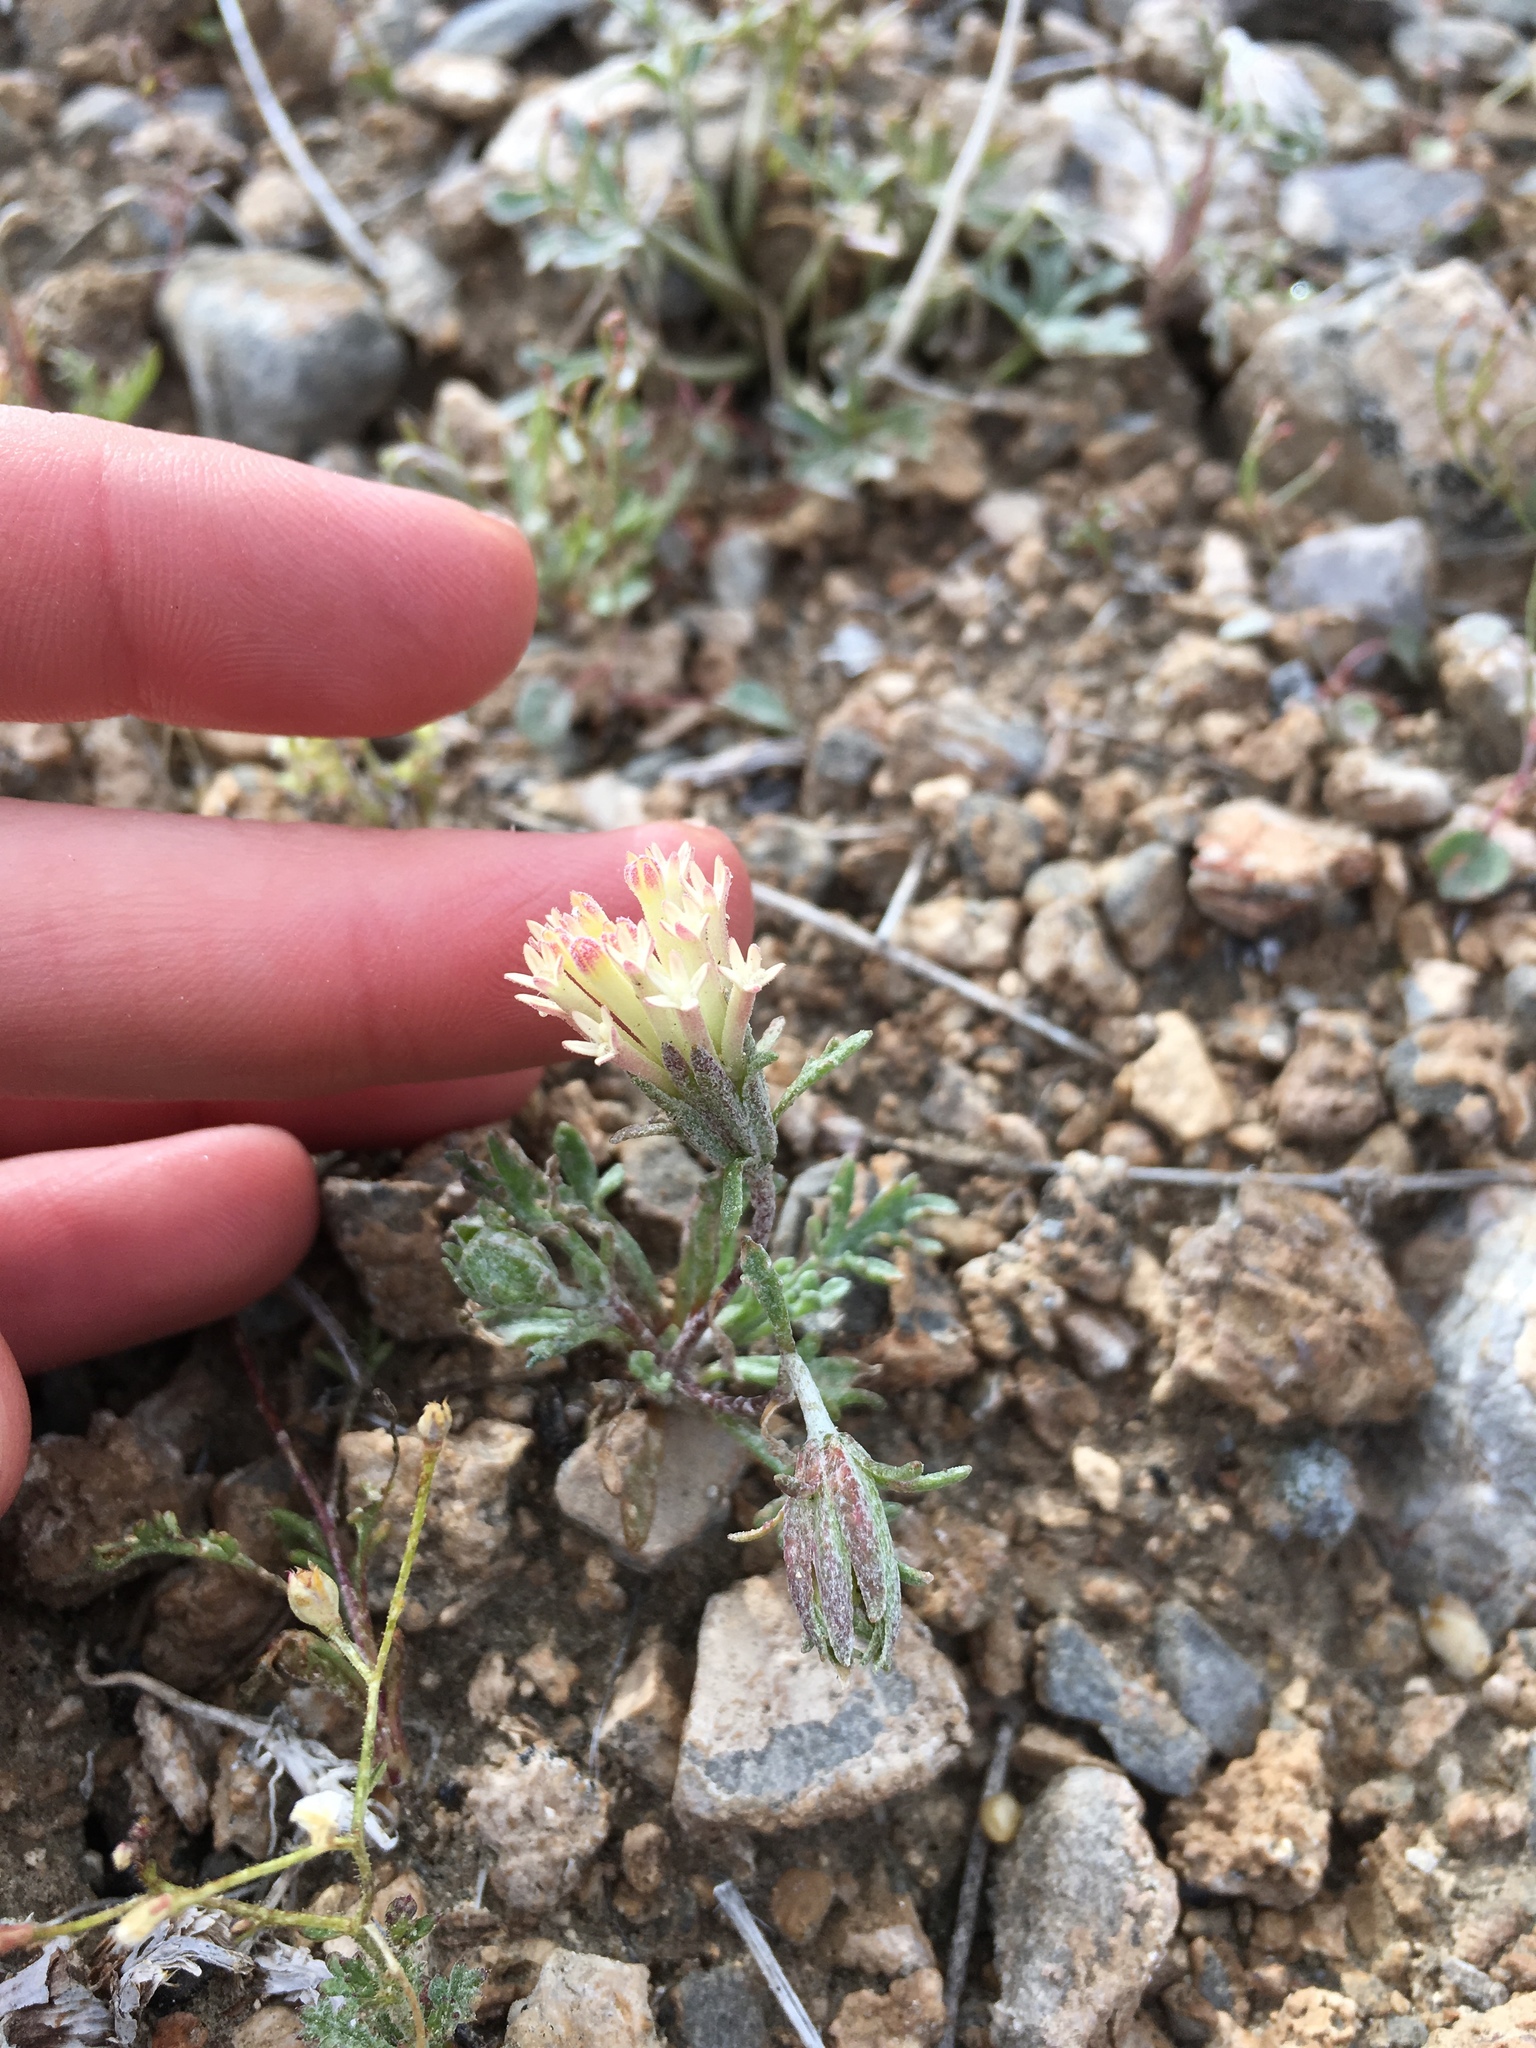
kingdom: Plantae
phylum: Tracheophyta
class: Magnoliopsida
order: Asterales
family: Asteraceae
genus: Chaenactis
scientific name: Chaenactis macrantha
